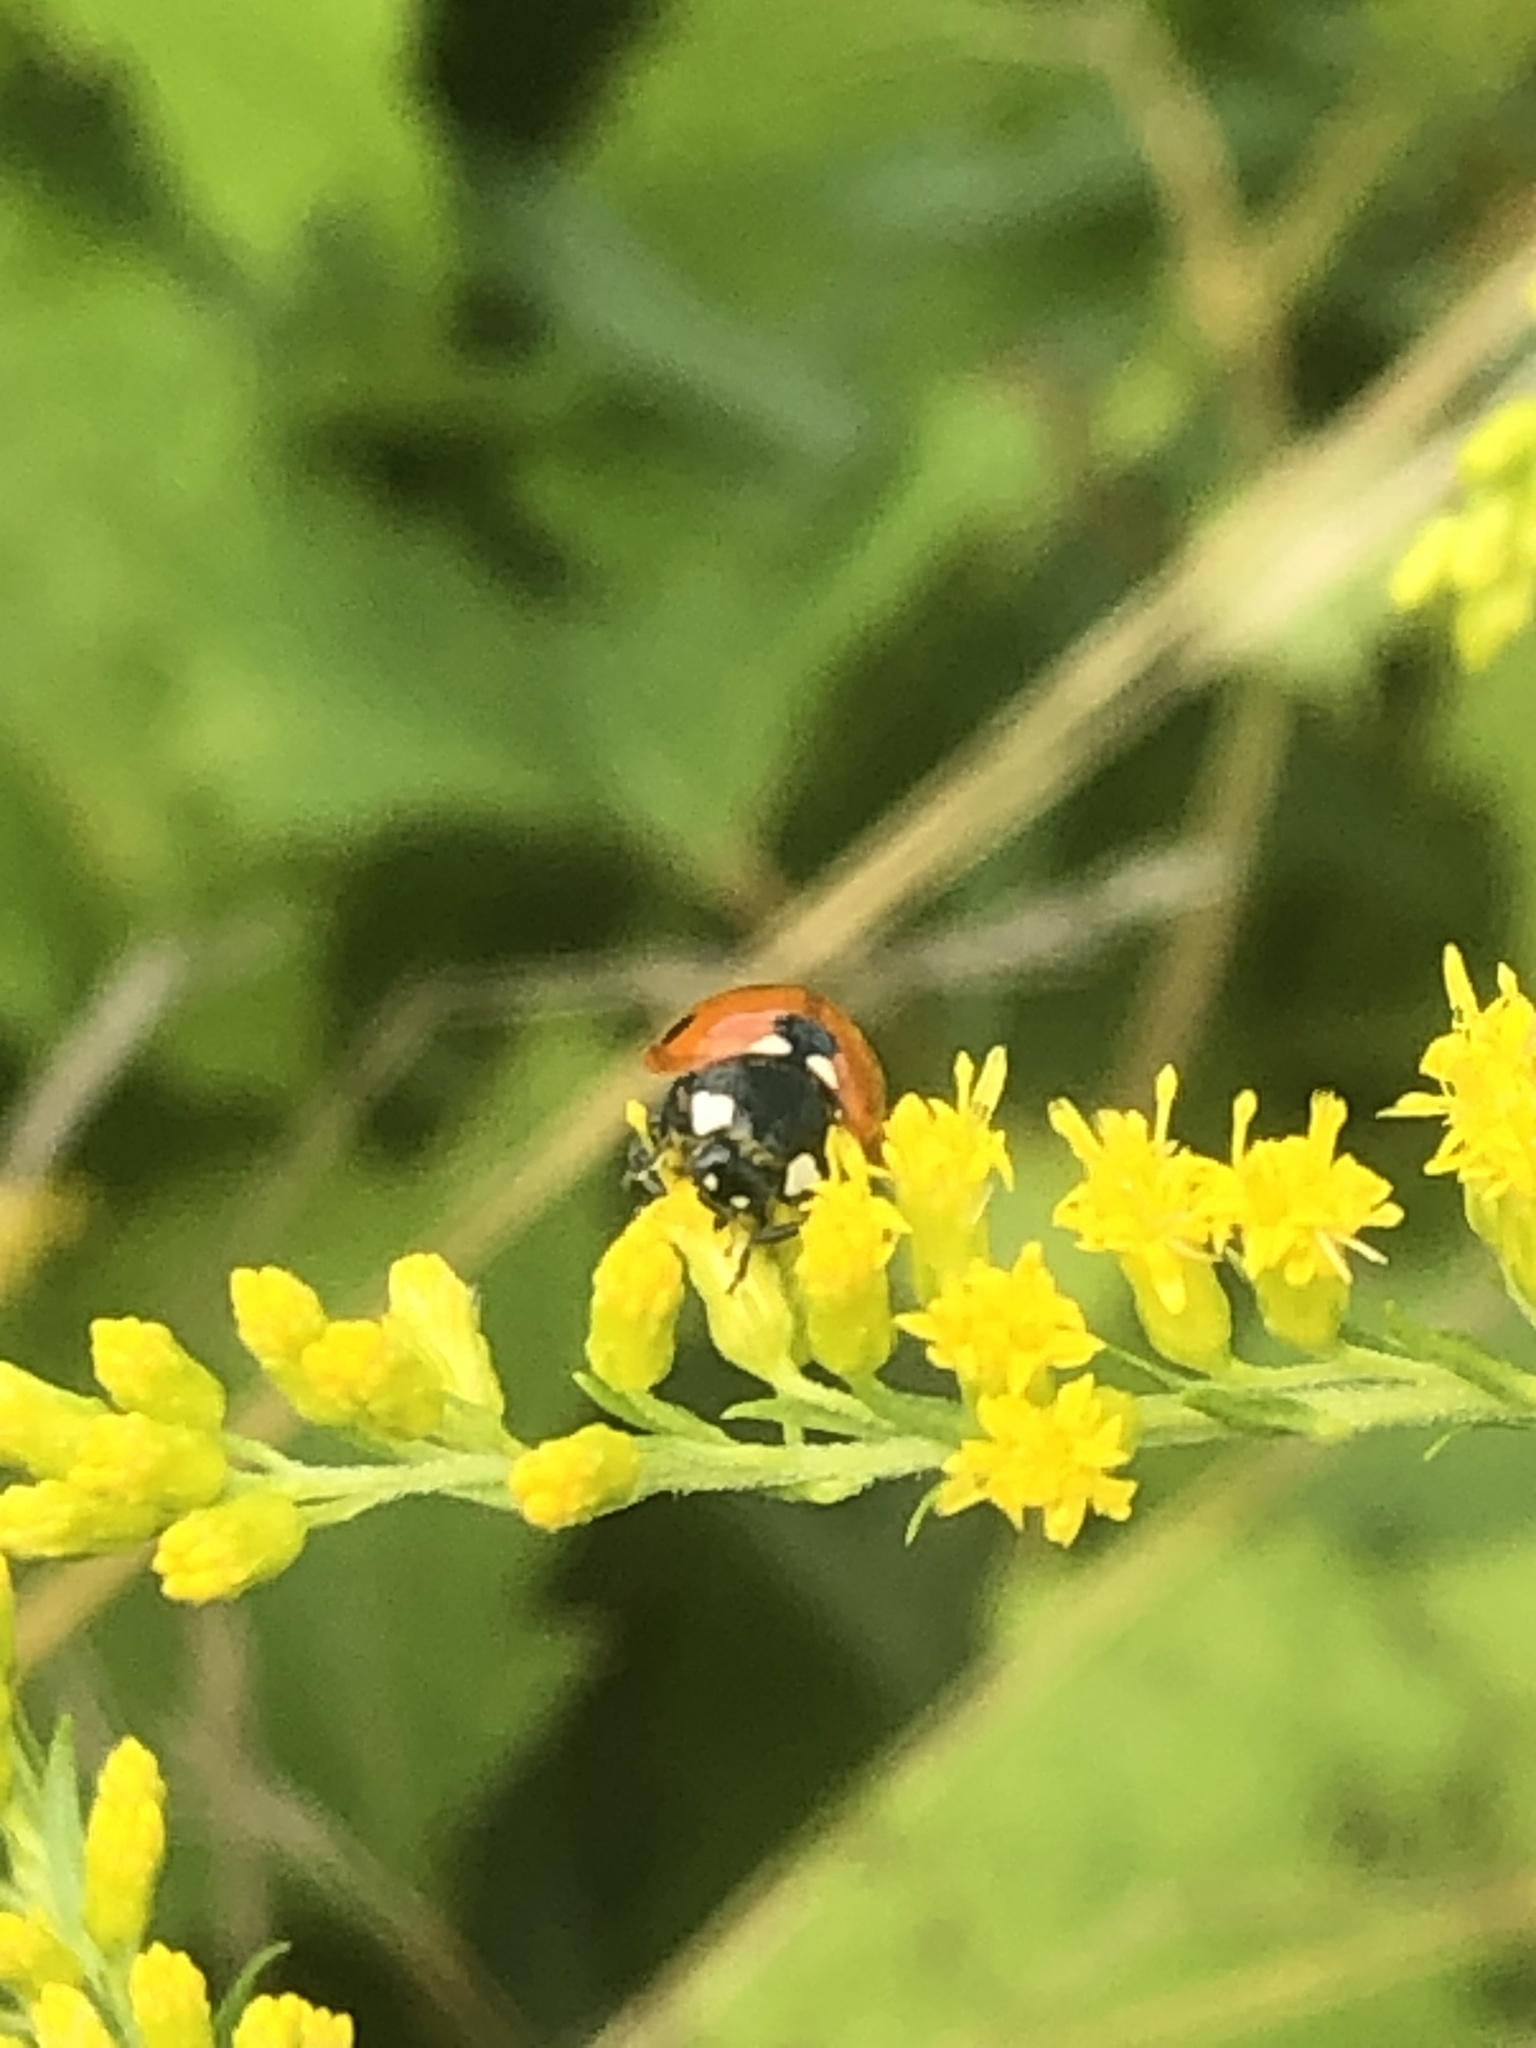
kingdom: Animalia
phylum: Arthropoda
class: Insecta
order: Coleoptera
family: Coccinellidae
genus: Coccinella
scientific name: Coccinella septempunctata
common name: Sevenspotted lady beetle
